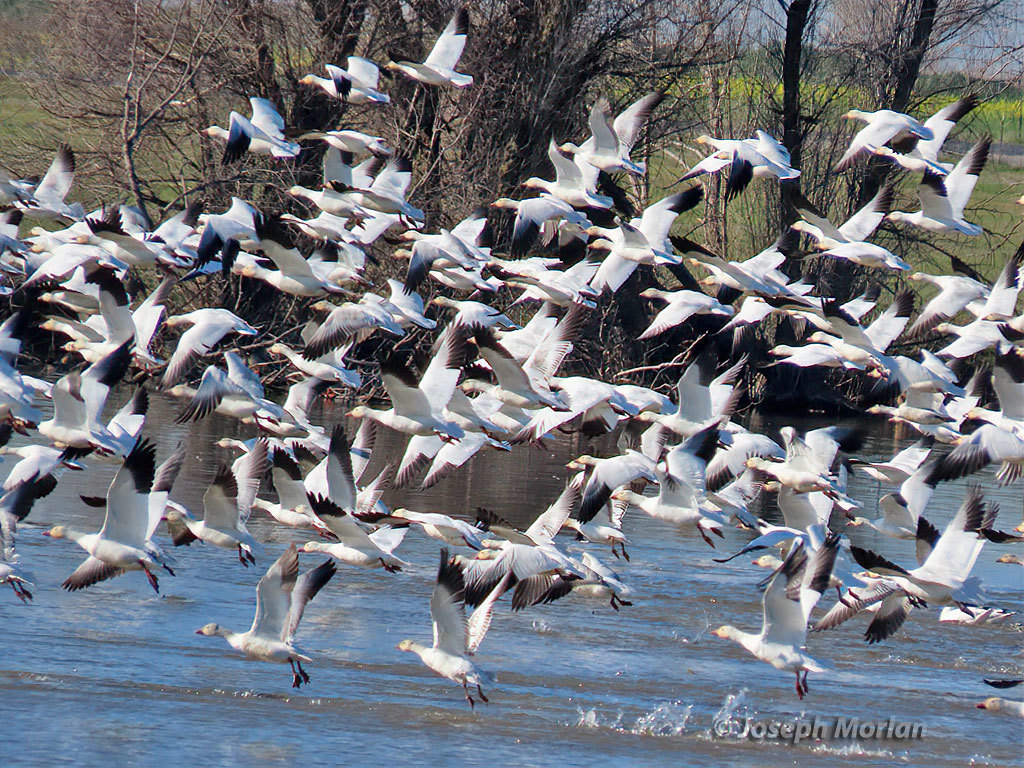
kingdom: Animalia
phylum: Chordata
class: Aves
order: Anseriformes
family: Anatidae
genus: Anser
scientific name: Anser caerulescens
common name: Snow goose
